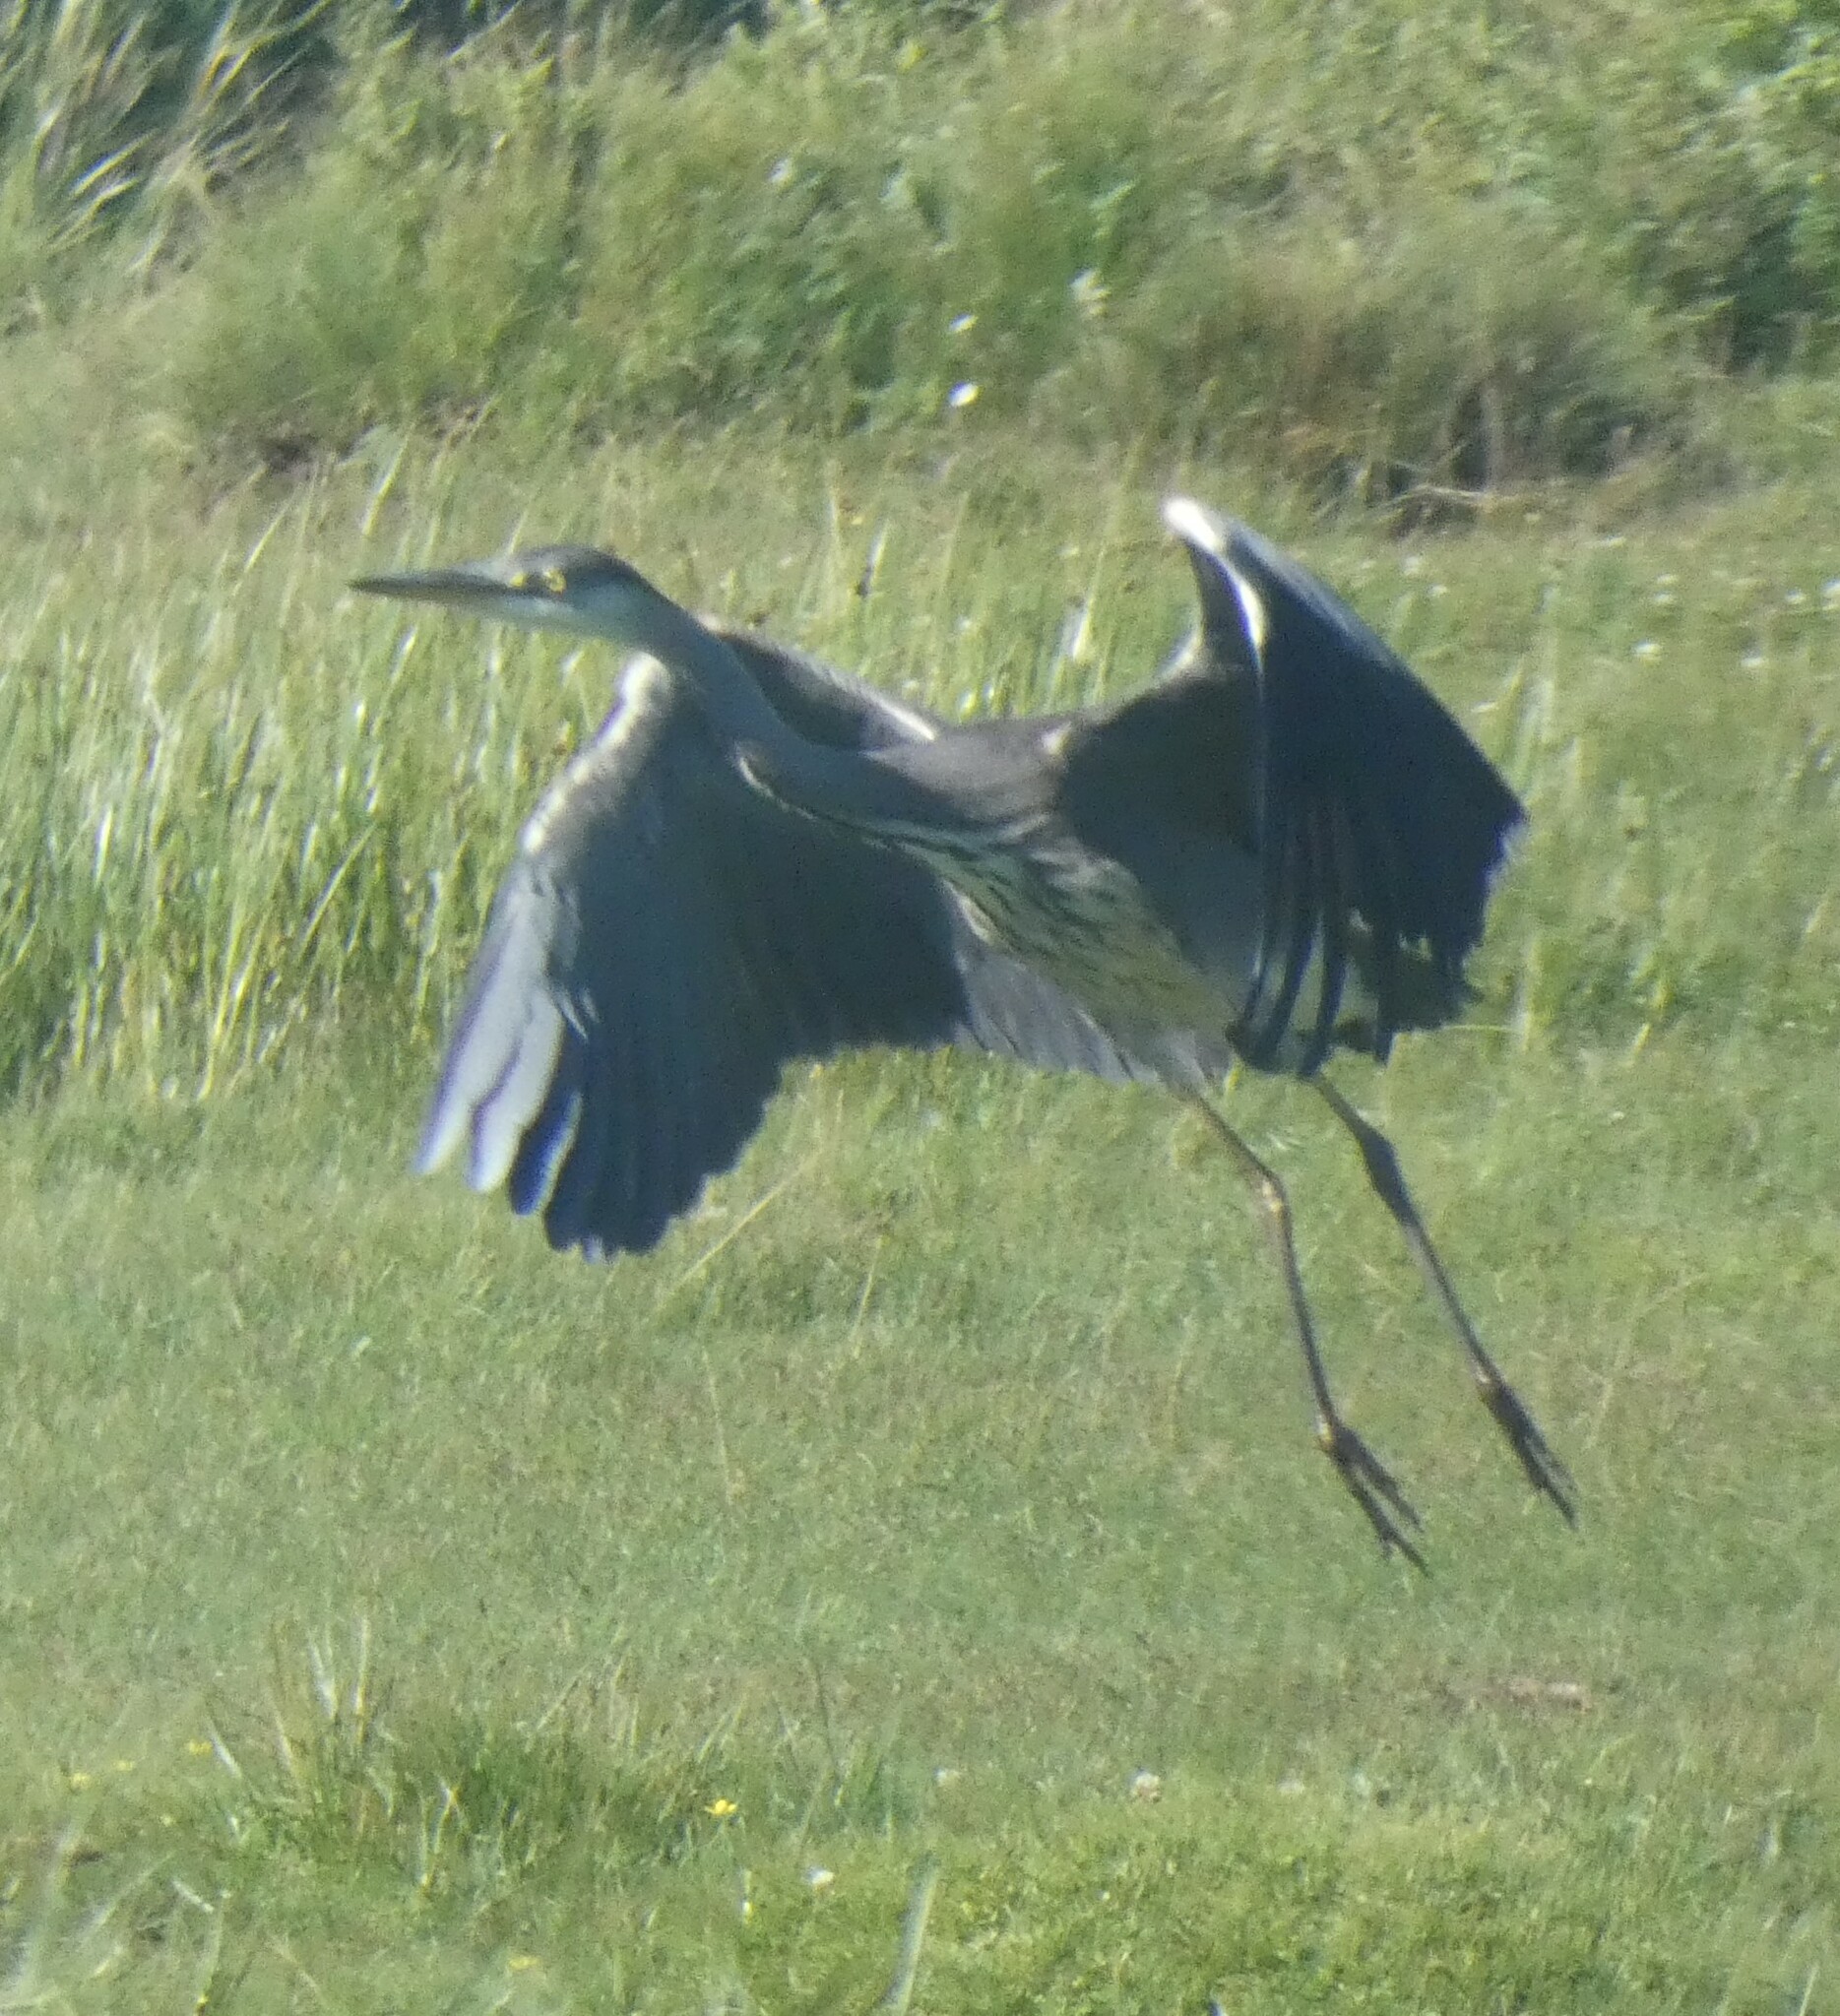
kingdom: Animalia
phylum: Chordata
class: Aves
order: Pelecaniformes
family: Ardeidae
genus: Ardea
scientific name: Ardea cinerea
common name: Grey heron
